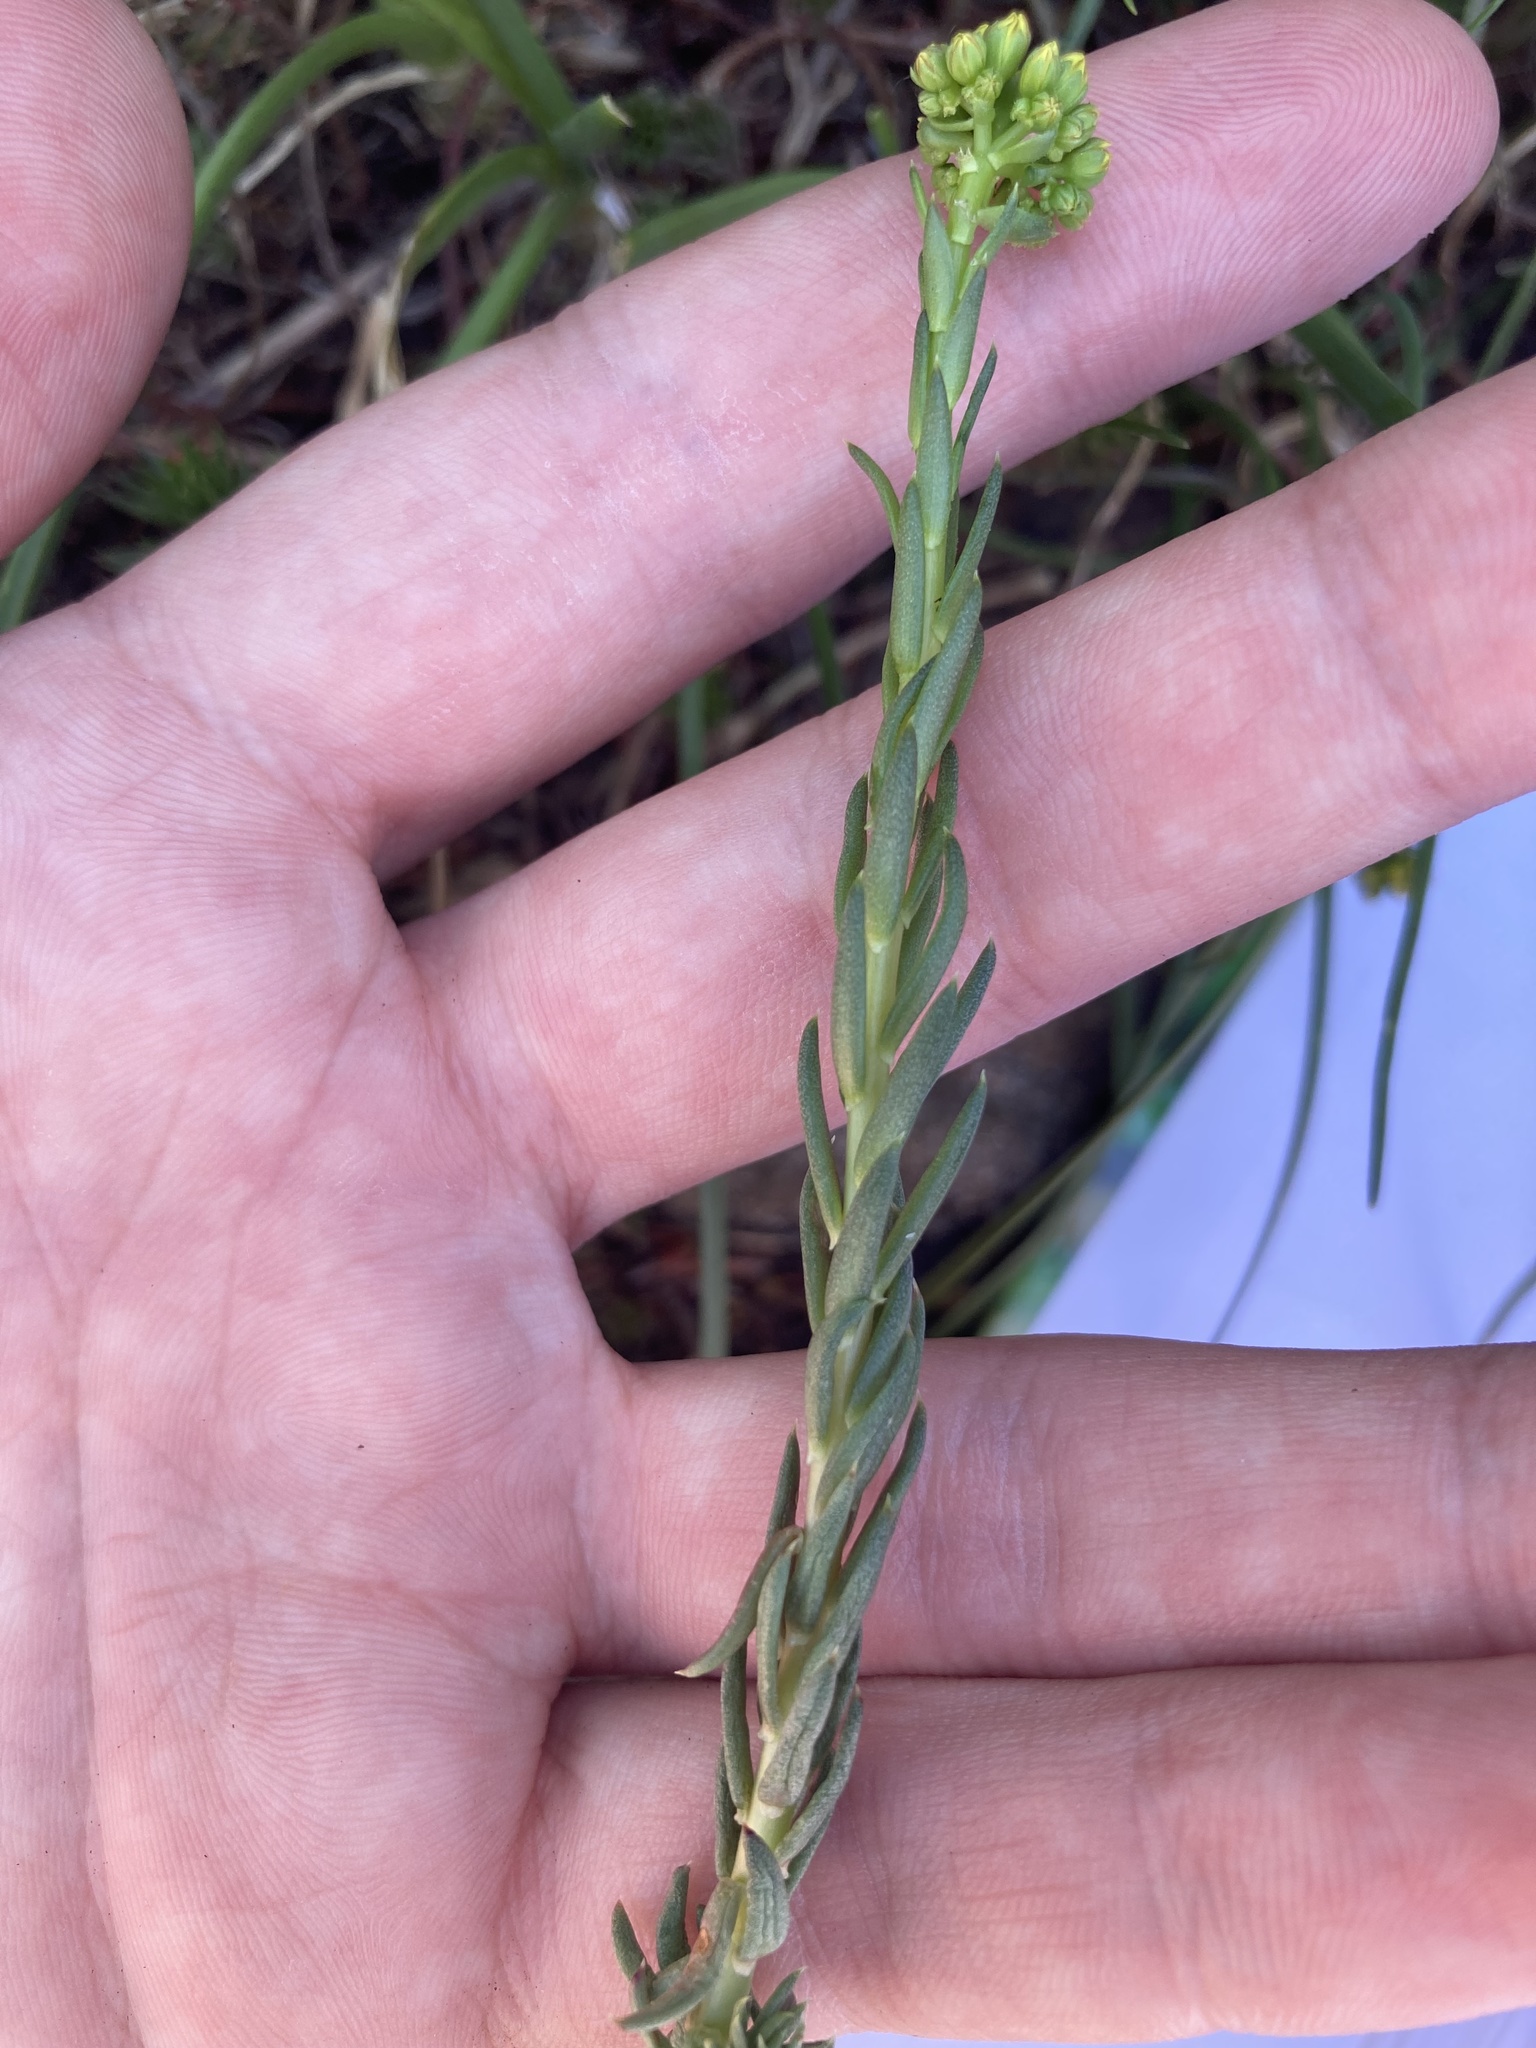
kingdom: Plantae
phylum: Tracheophyta
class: Magnoliopsida
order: Saxifragales
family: Crassulaceae
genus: Petrosedum
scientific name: Petrosedum rupestre
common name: Jenny's stonecrop
